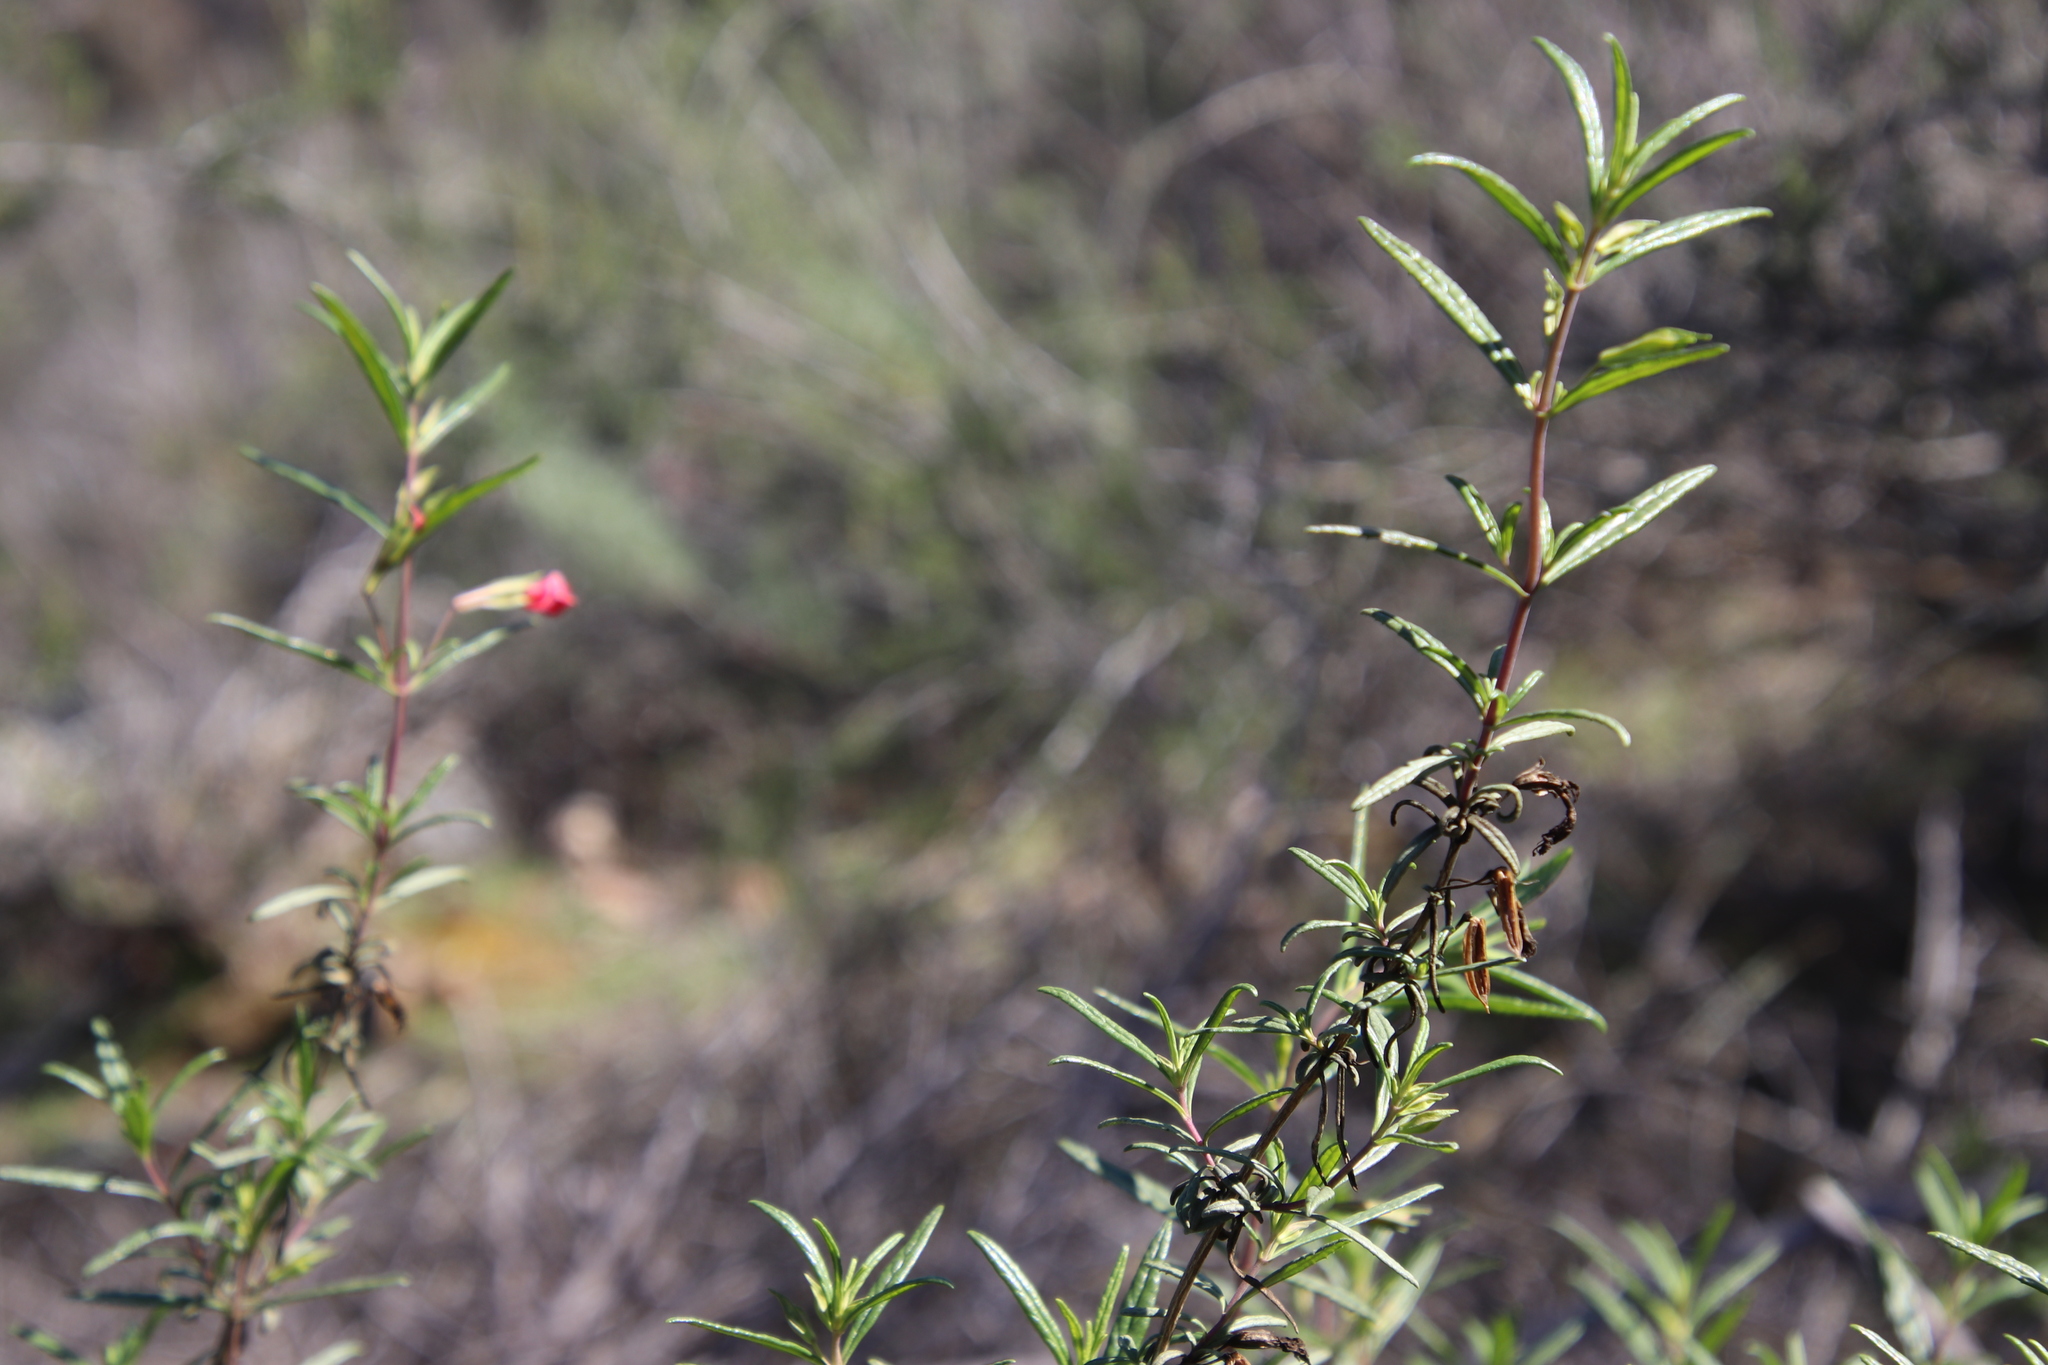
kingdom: Plantae
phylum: Tracheophyta
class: Magnoliopsida
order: Lamiales
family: Phrymaceae
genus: Diplacus
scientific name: Diplacus puniceus
